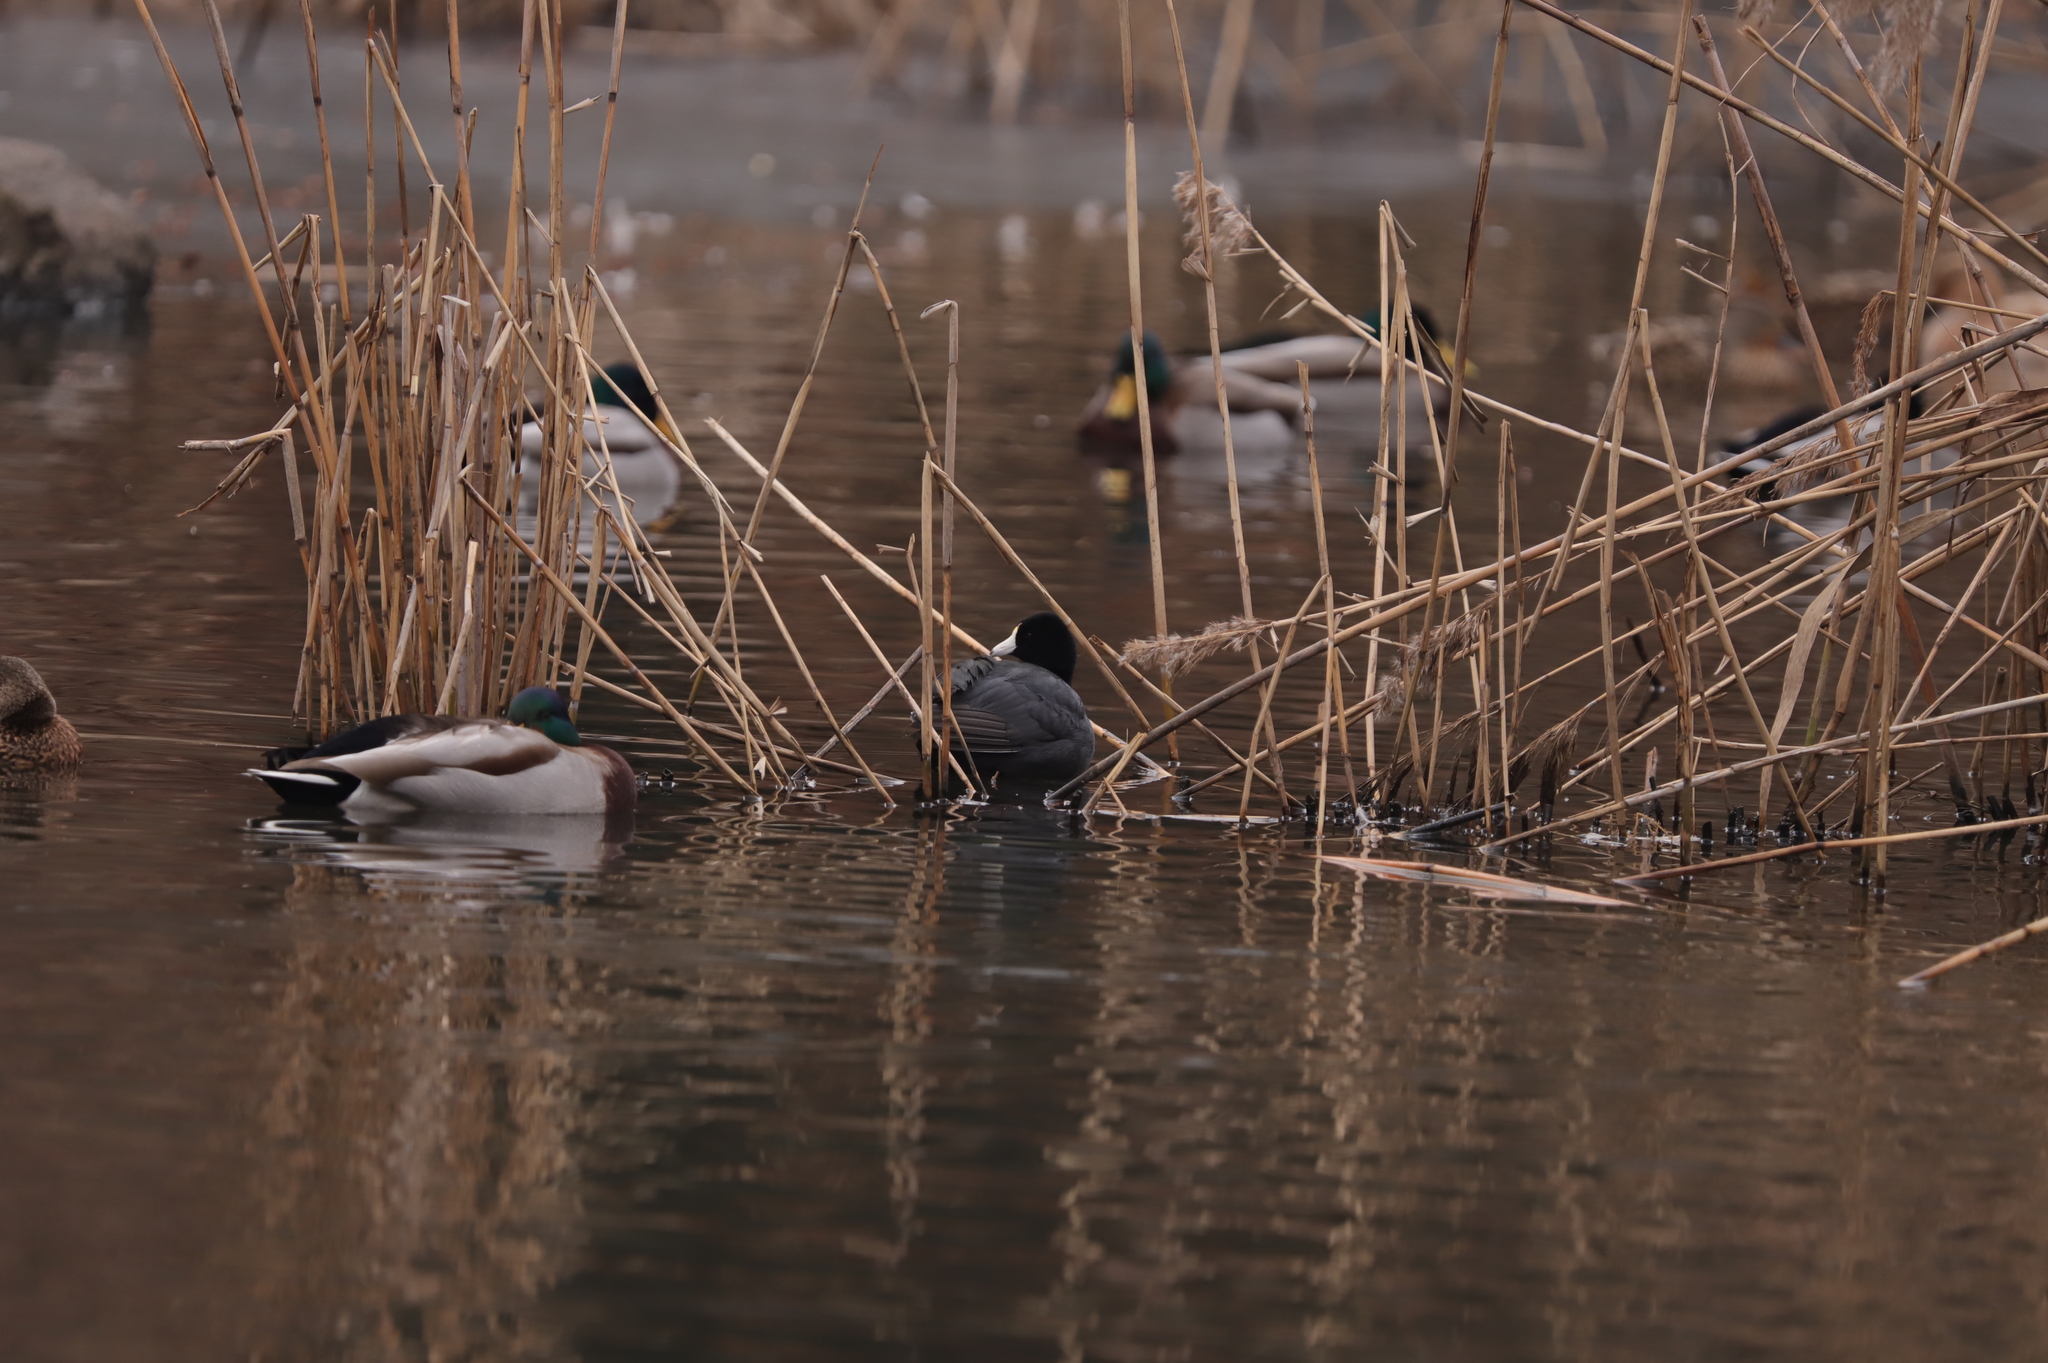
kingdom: Animalia
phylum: Chordata
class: Aves
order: Gruiformes
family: Rallidae
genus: Fulica
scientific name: Fulica americana
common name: American coot
